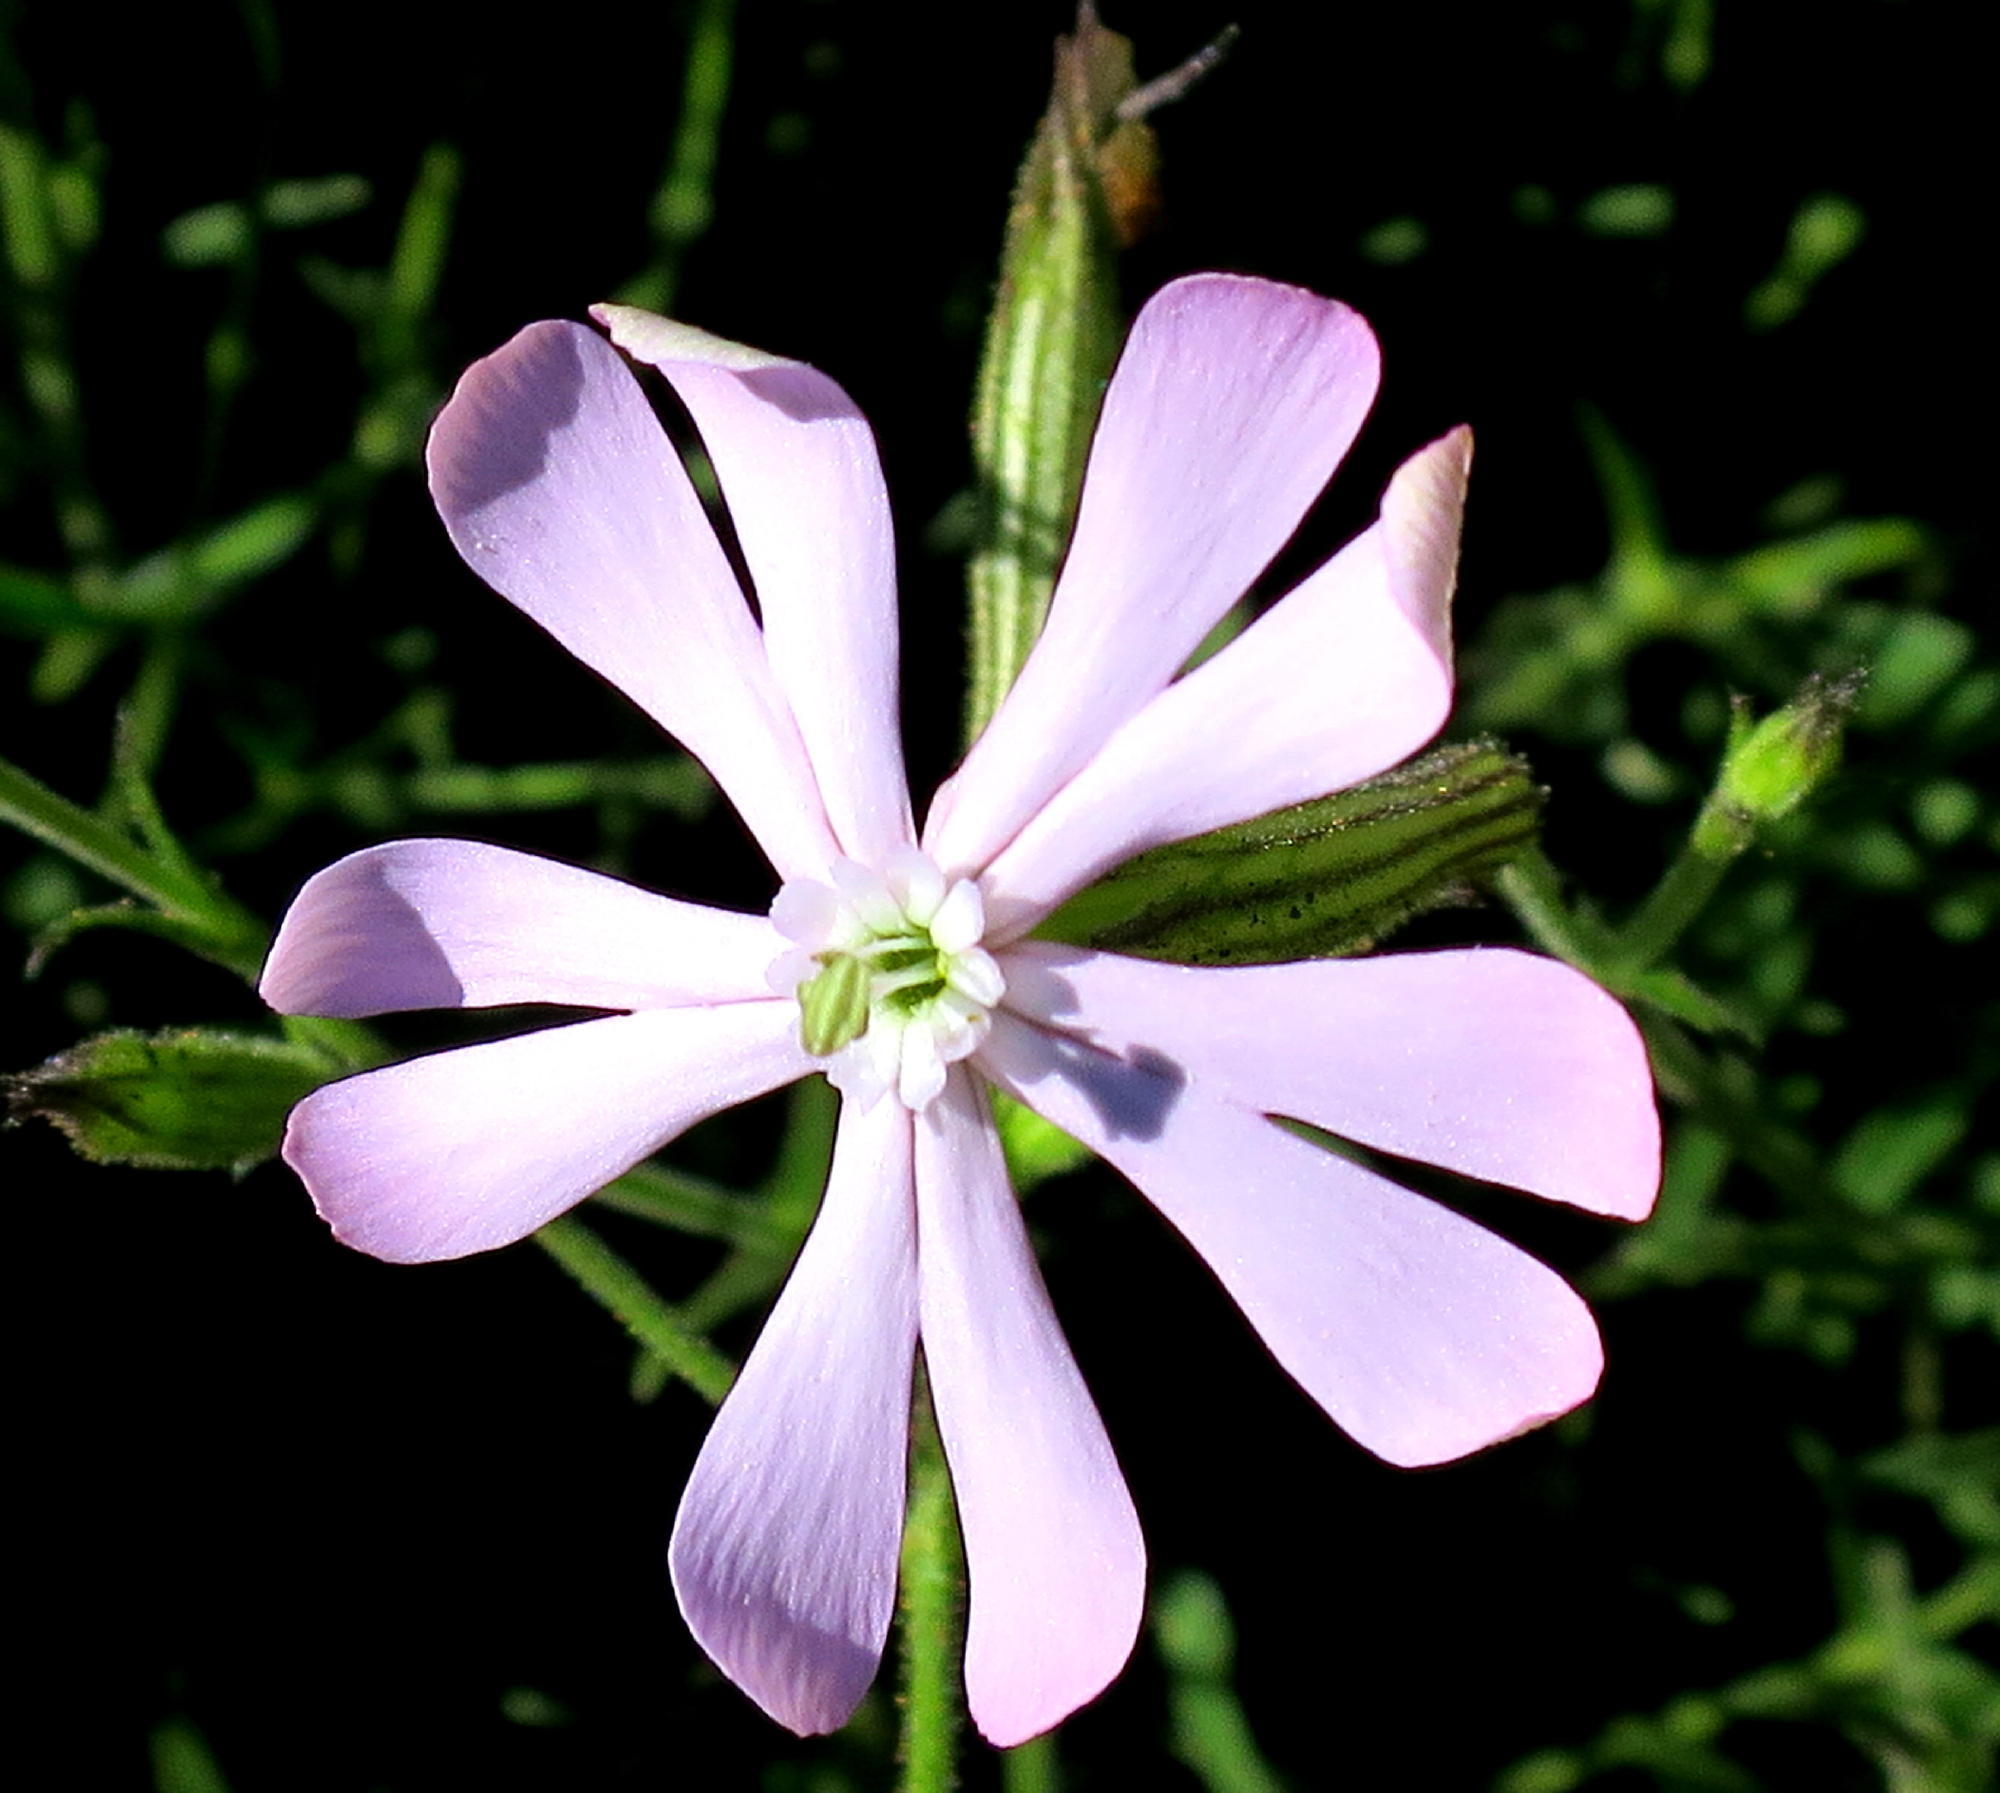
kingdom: Plantae
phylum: Tracheophyta
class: Magnoliopsida
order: Caryophyllales
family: Caryophyllaceae
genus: Silene
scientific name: Silene undulata
